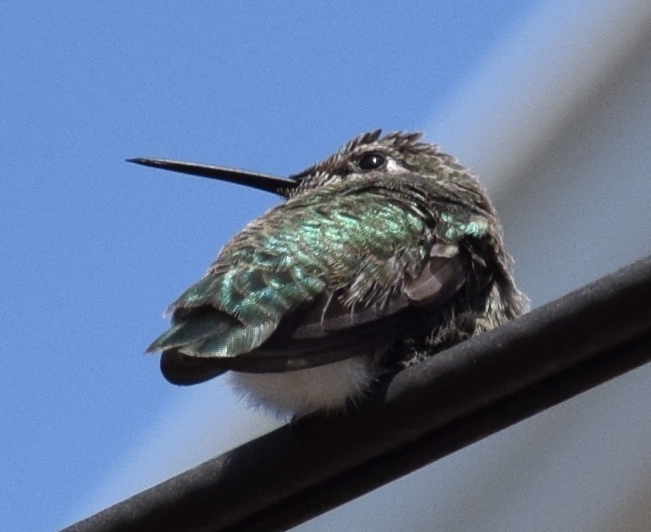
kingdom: Animalia
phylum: Chordata
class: Aves
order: Apodiformes
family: Trochilidae
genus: Calypte
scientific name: Calypte anna
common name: Anna's hummingbird
